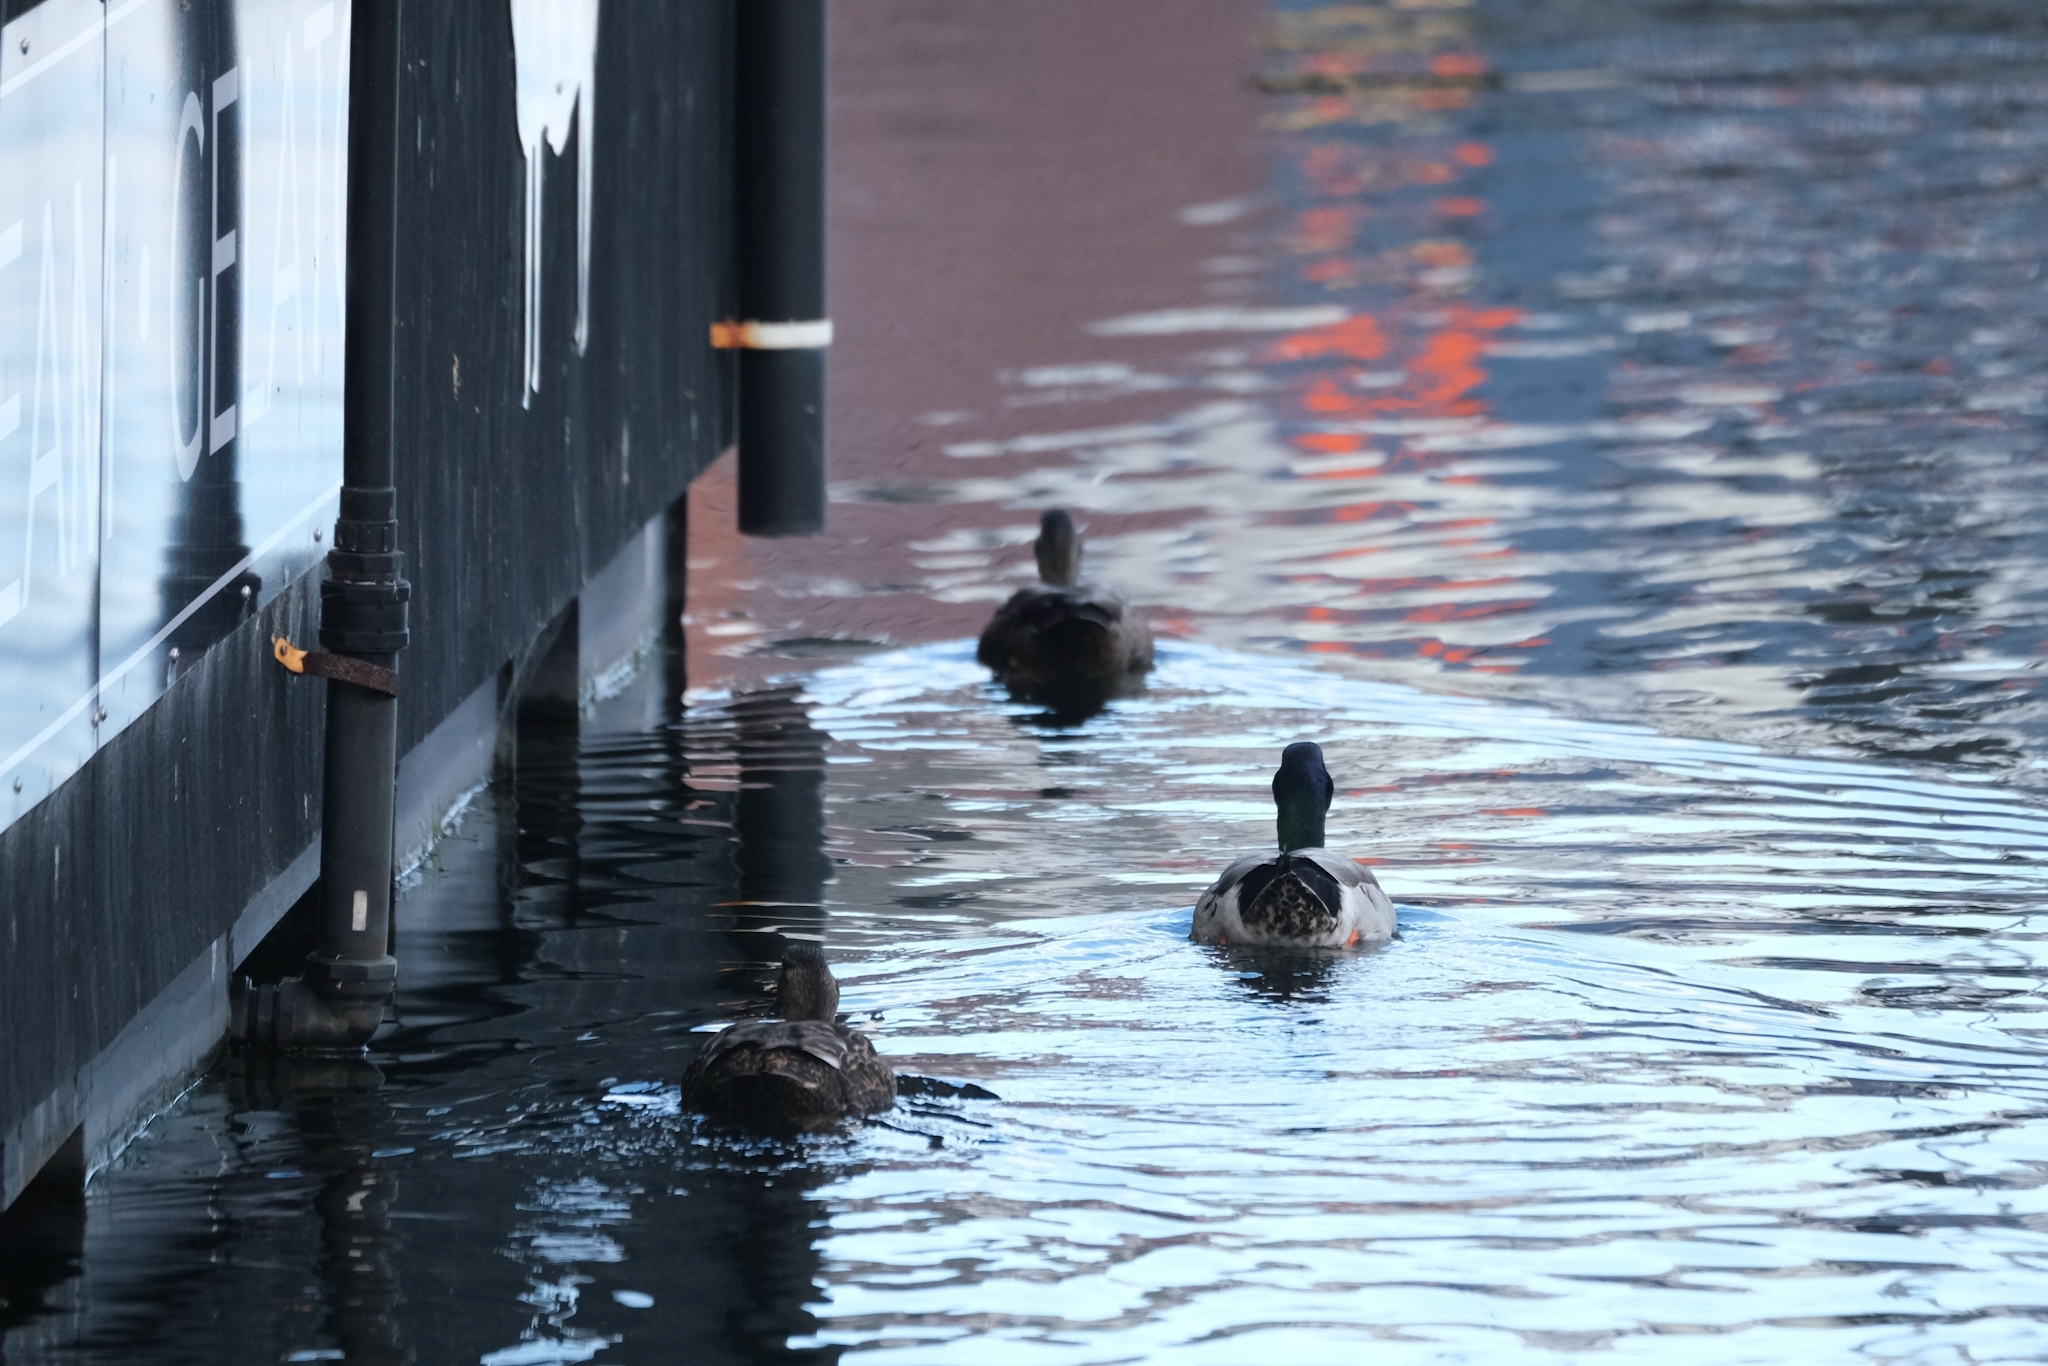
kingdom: Animalia
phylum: Chordata
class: Aves
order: Anseriformes
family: Anatidae
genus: Anas
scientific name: Anas platyrhynchos
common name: Mallard
